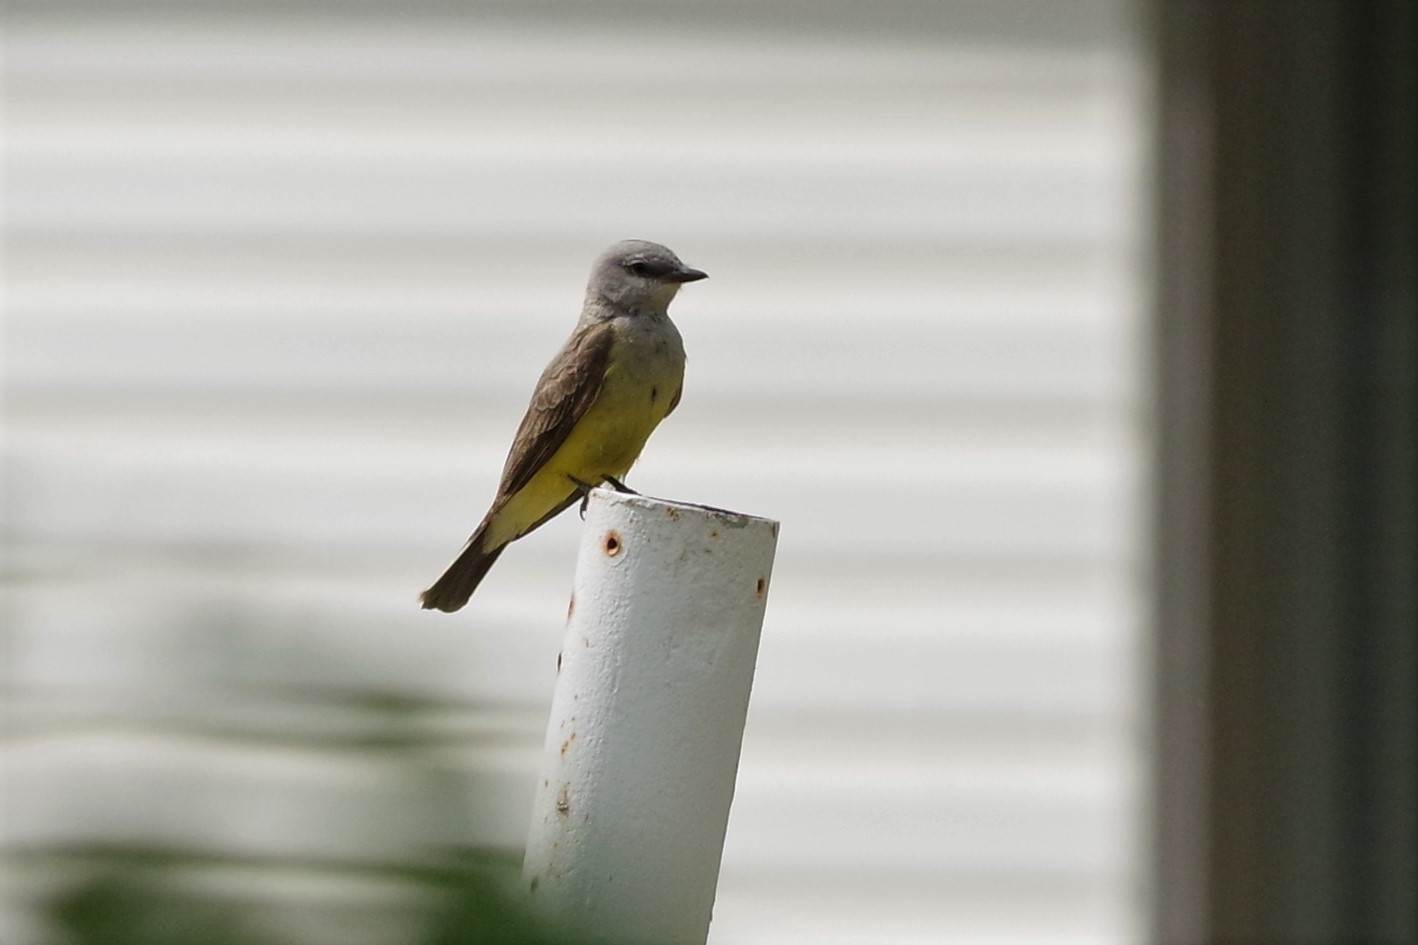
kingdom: Animalia
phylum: Chordata
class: Aves
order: Passeriformes
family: Tyrannidae
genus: Tyrannus
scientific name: Tyrannus verticalis
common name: Western kingbird
